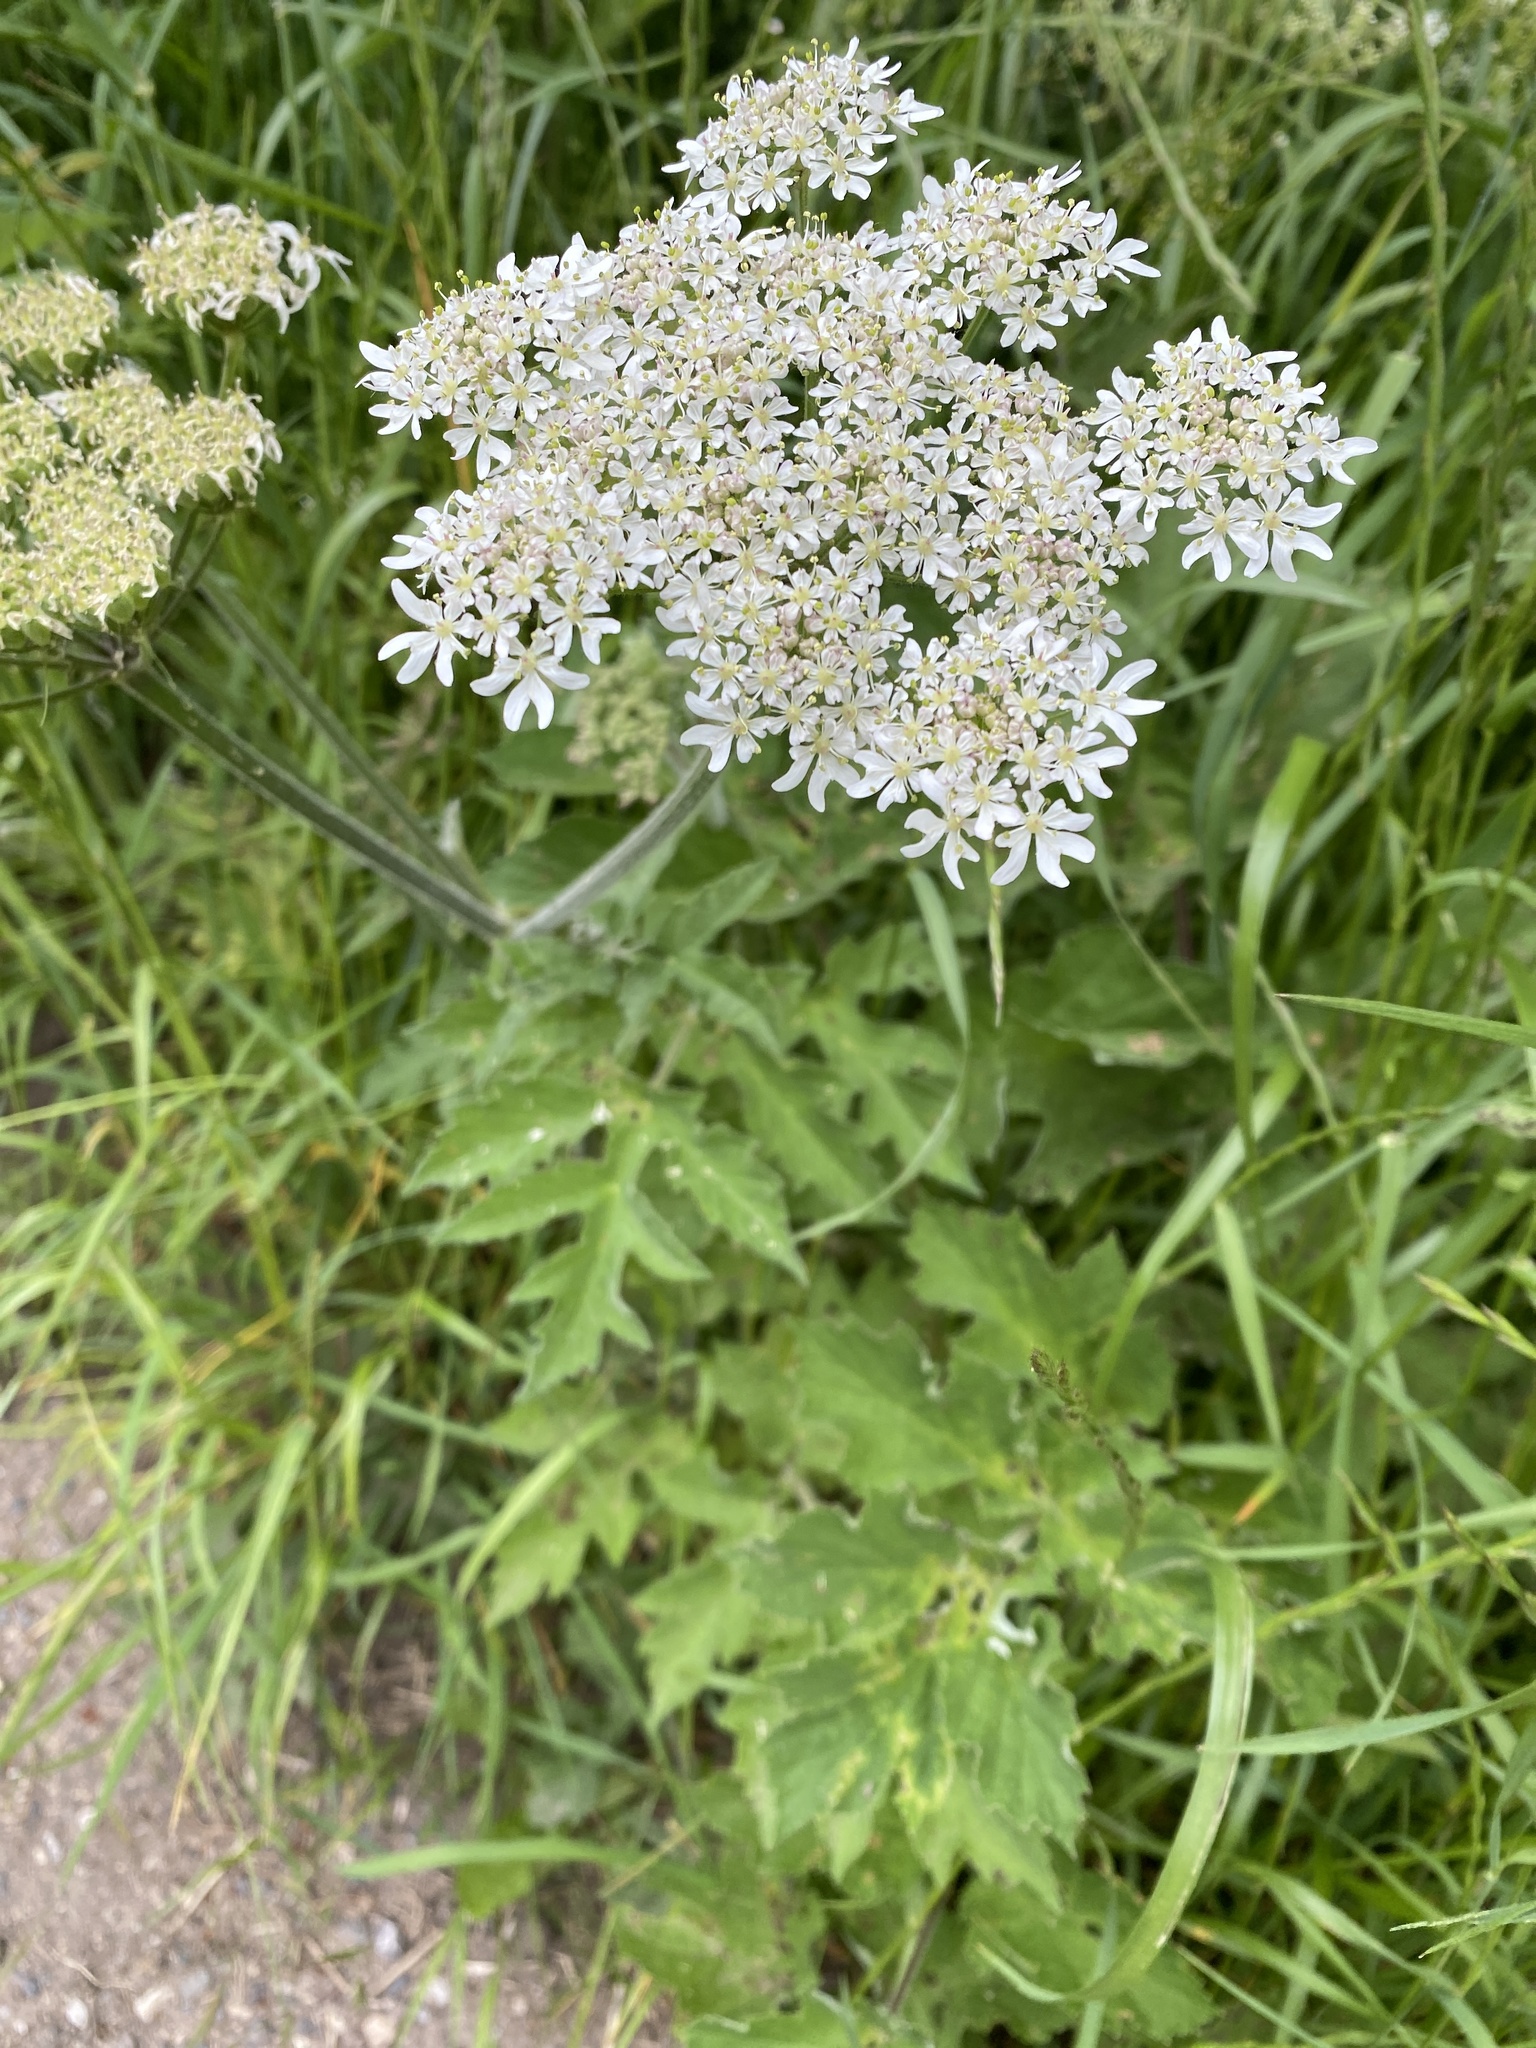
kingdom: Plantae
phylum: Tracheophyta
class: Magnoliopsida
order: Apiales
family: Apiaceae
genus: Heracleum
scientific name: Heracleum sphondylium
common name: Hogweed
